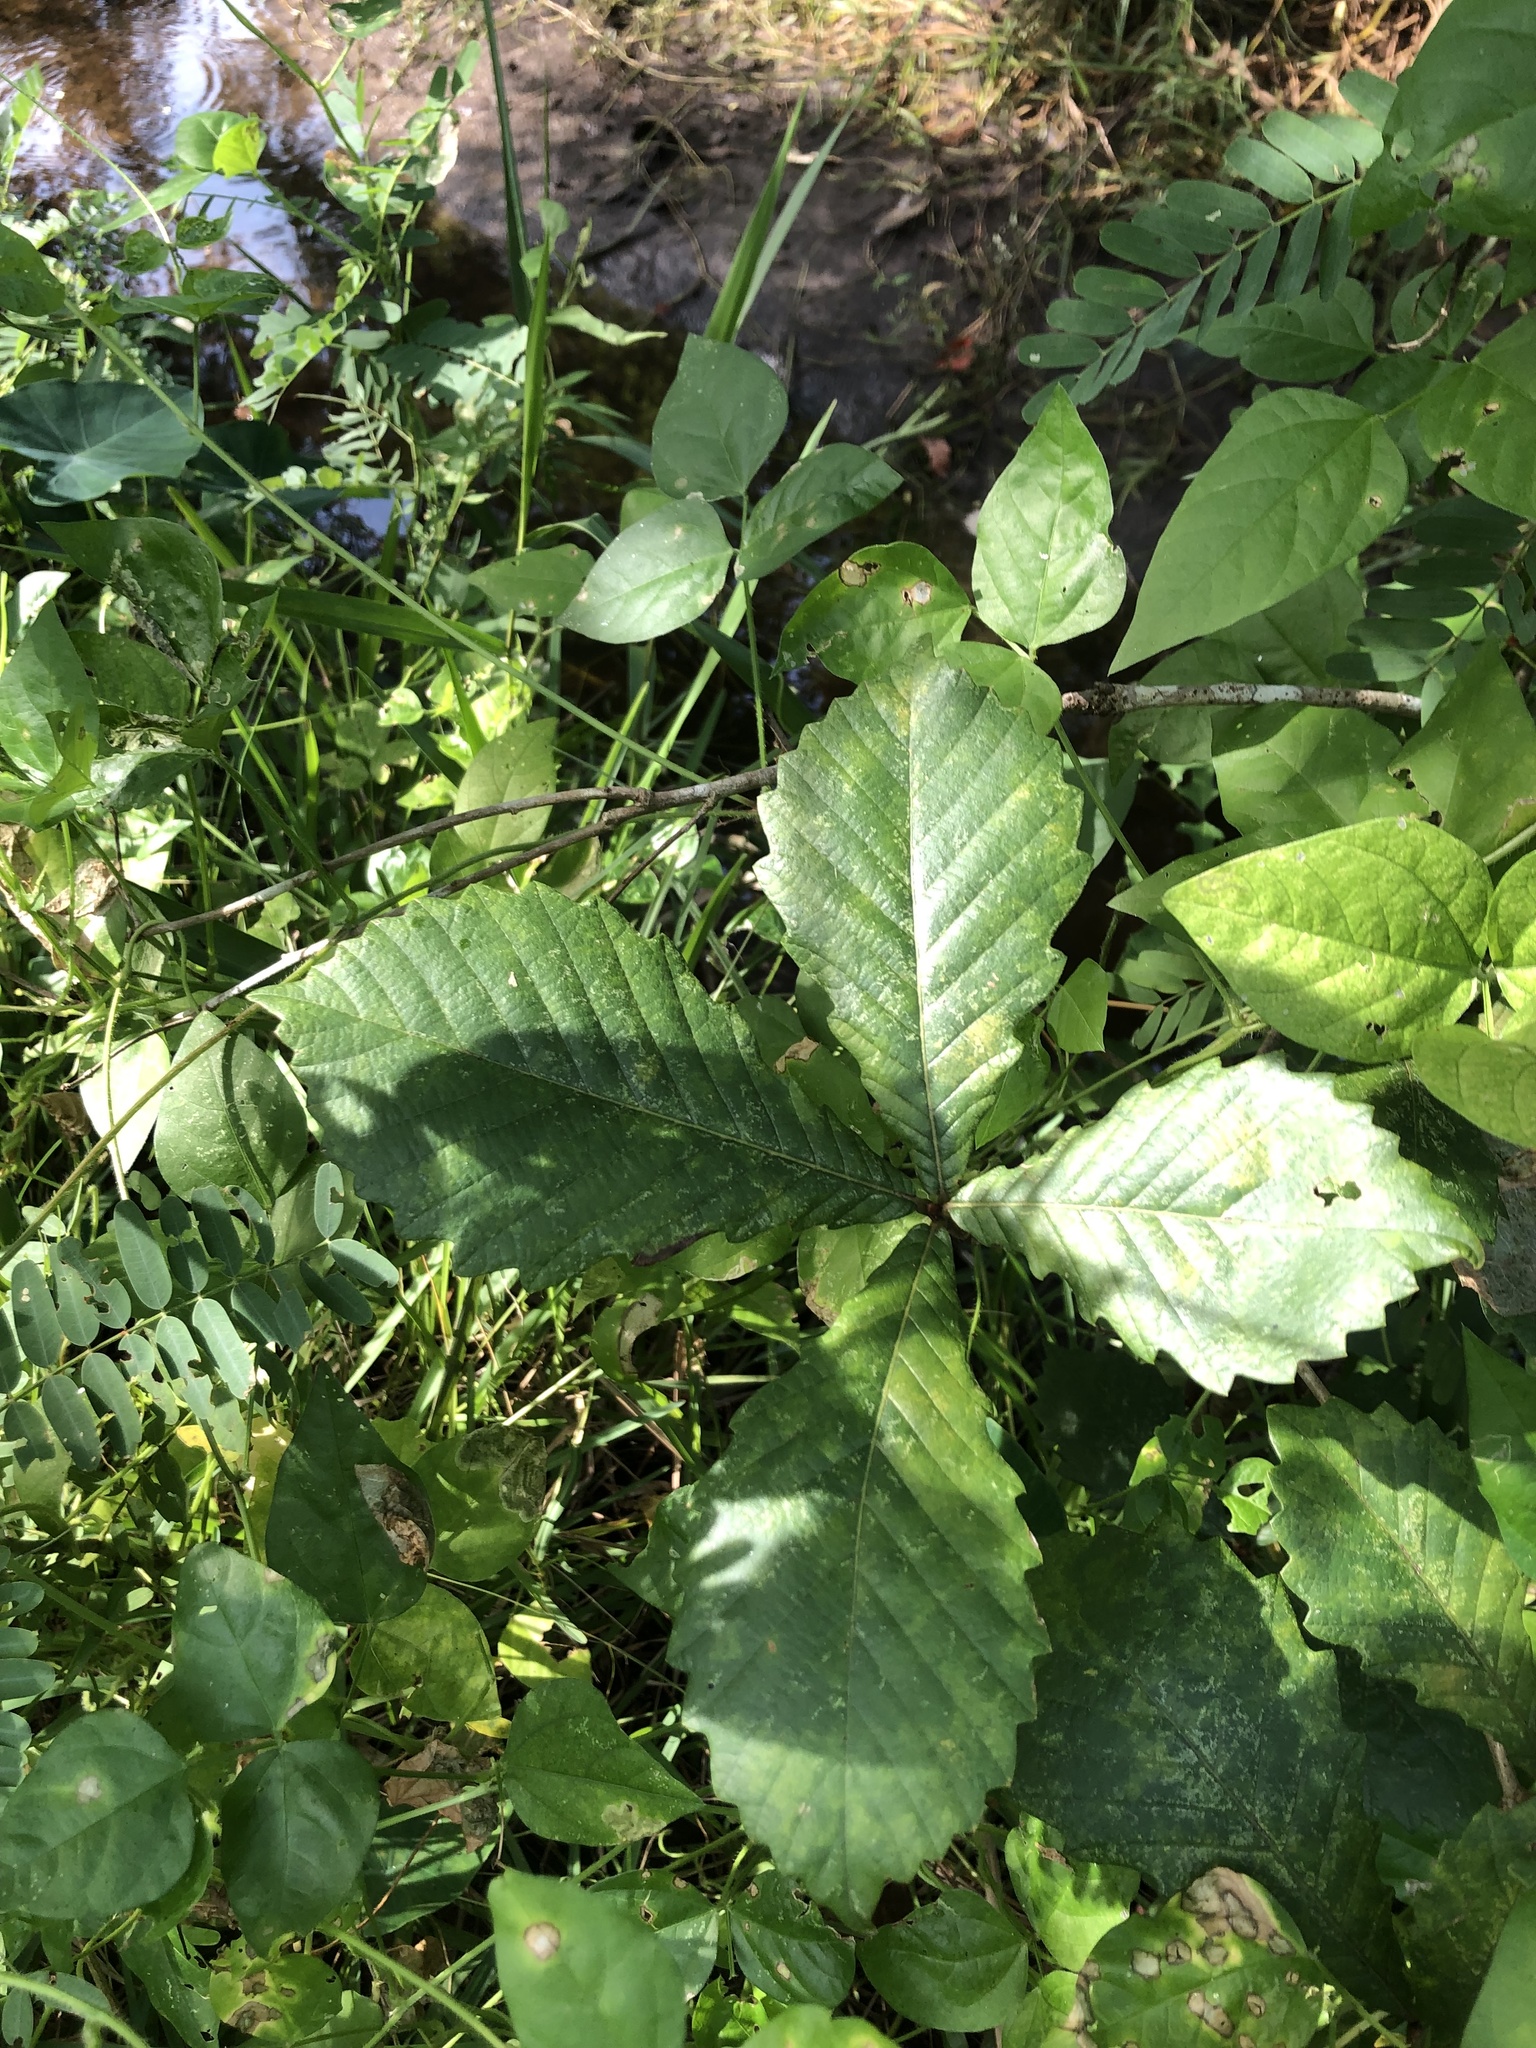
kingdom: Plantae
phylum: Tracheophyta
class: Magnoliopsida
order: Fagales
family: Fagaceae
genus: Quercus
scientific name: Quercus michauxii
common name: Swamp chestnut oak
